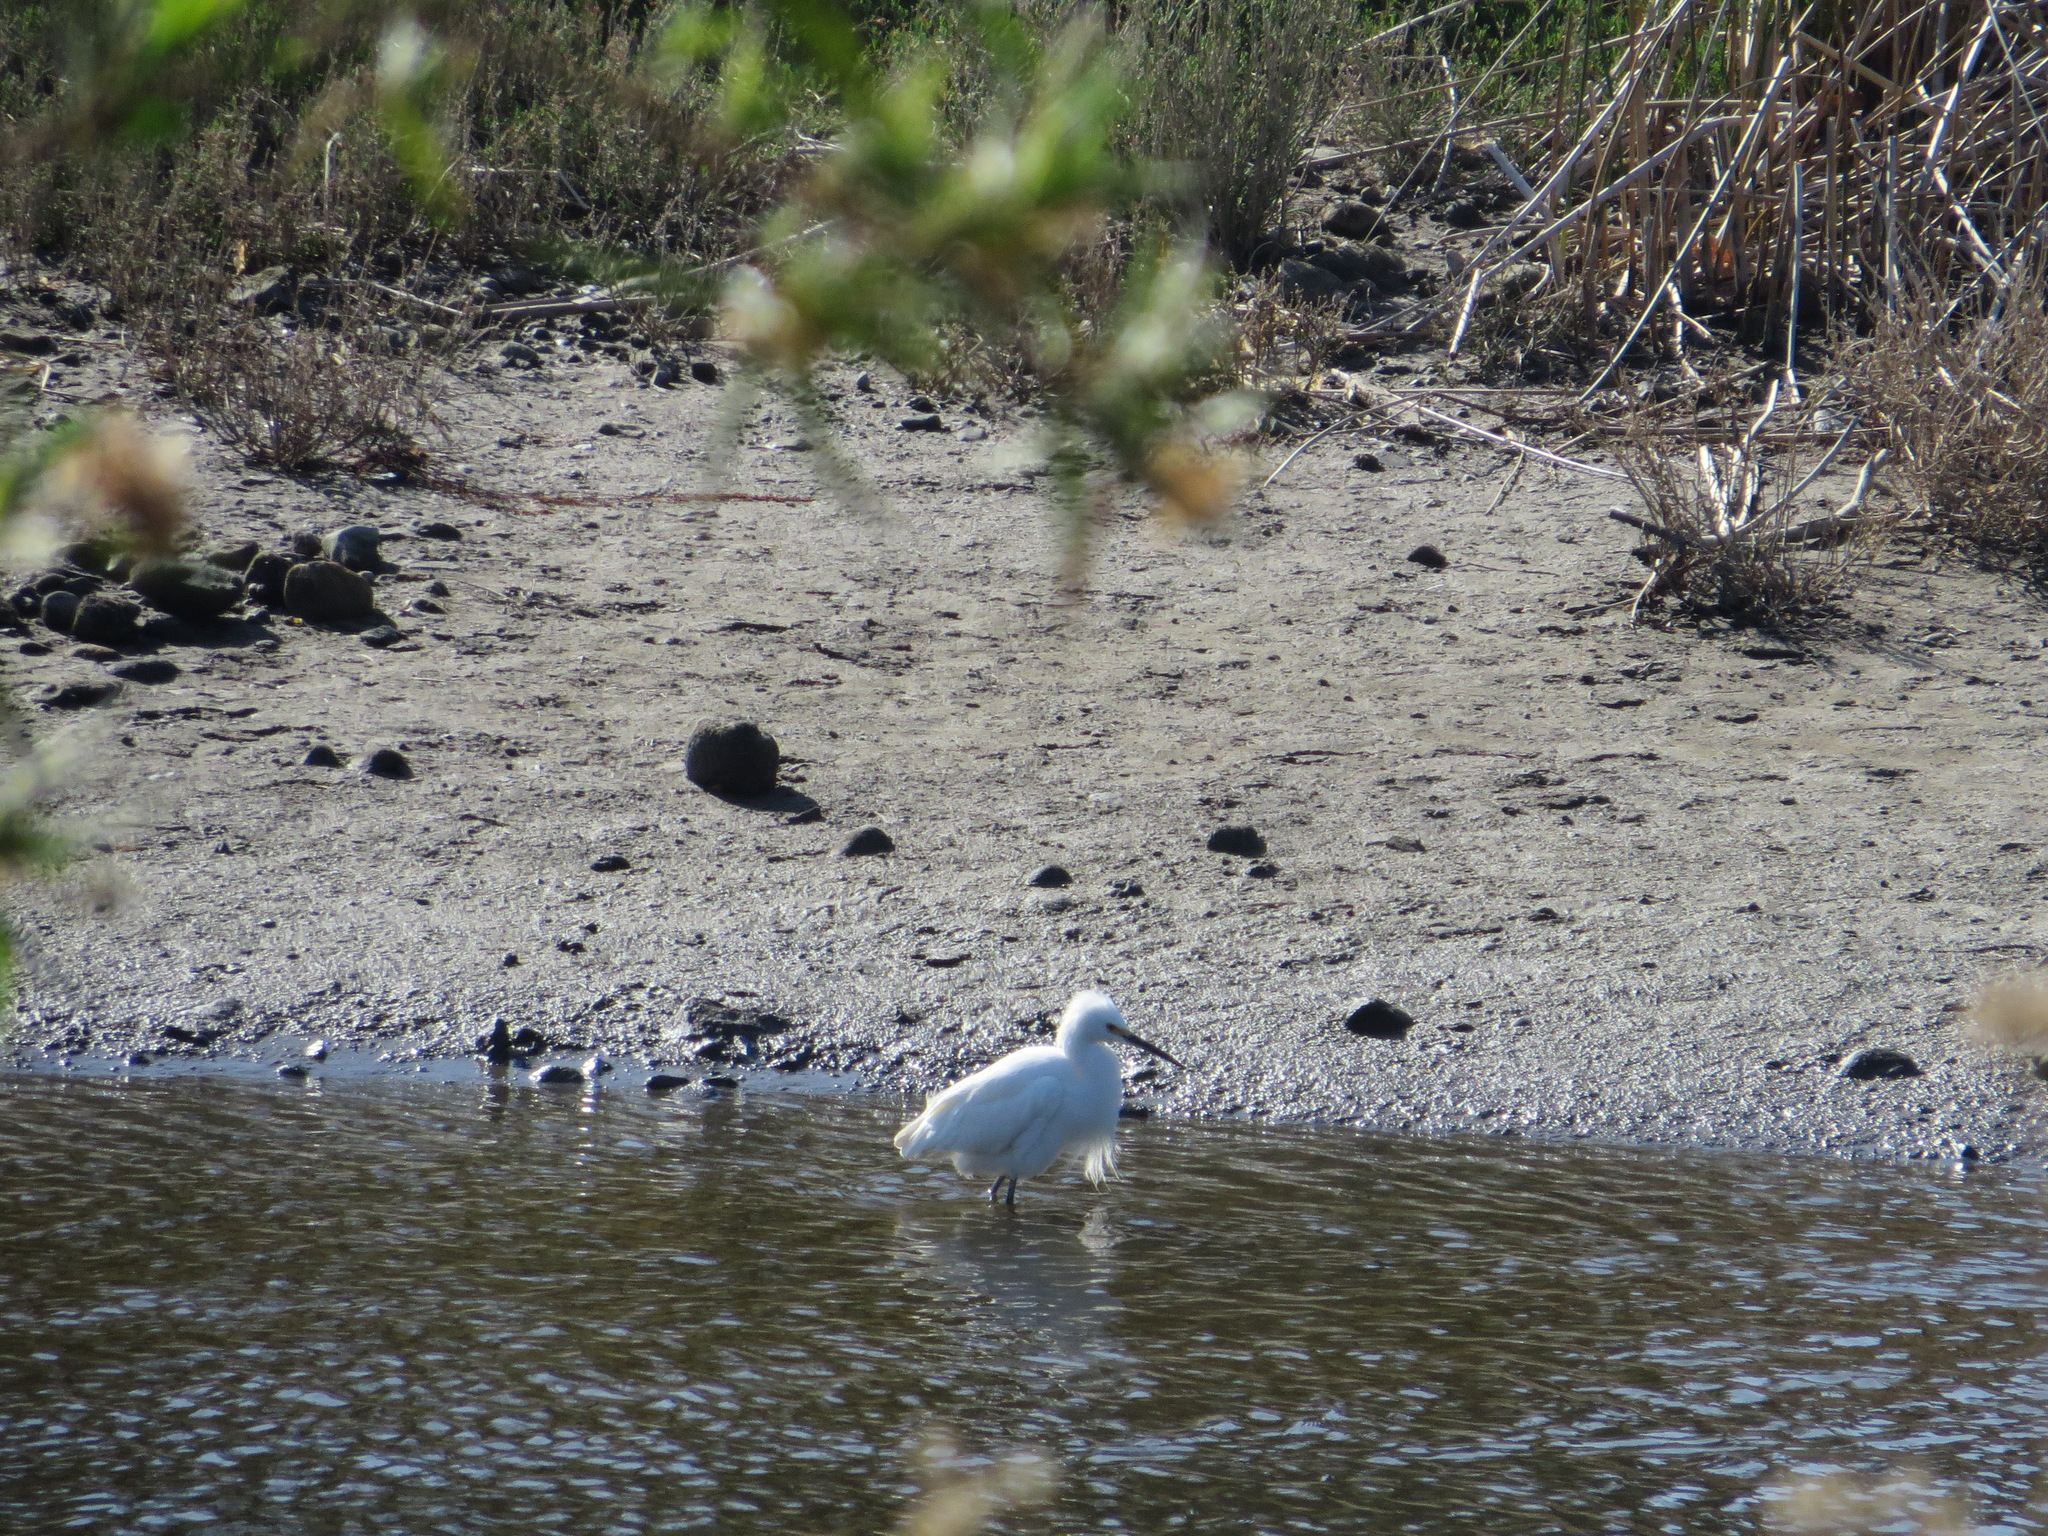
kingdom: Animalia
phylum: Chordata
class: Aves
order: Pelecaniformes
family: Ardeidae
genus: Egretta
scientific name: Egretta thula
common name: Snowy egret
